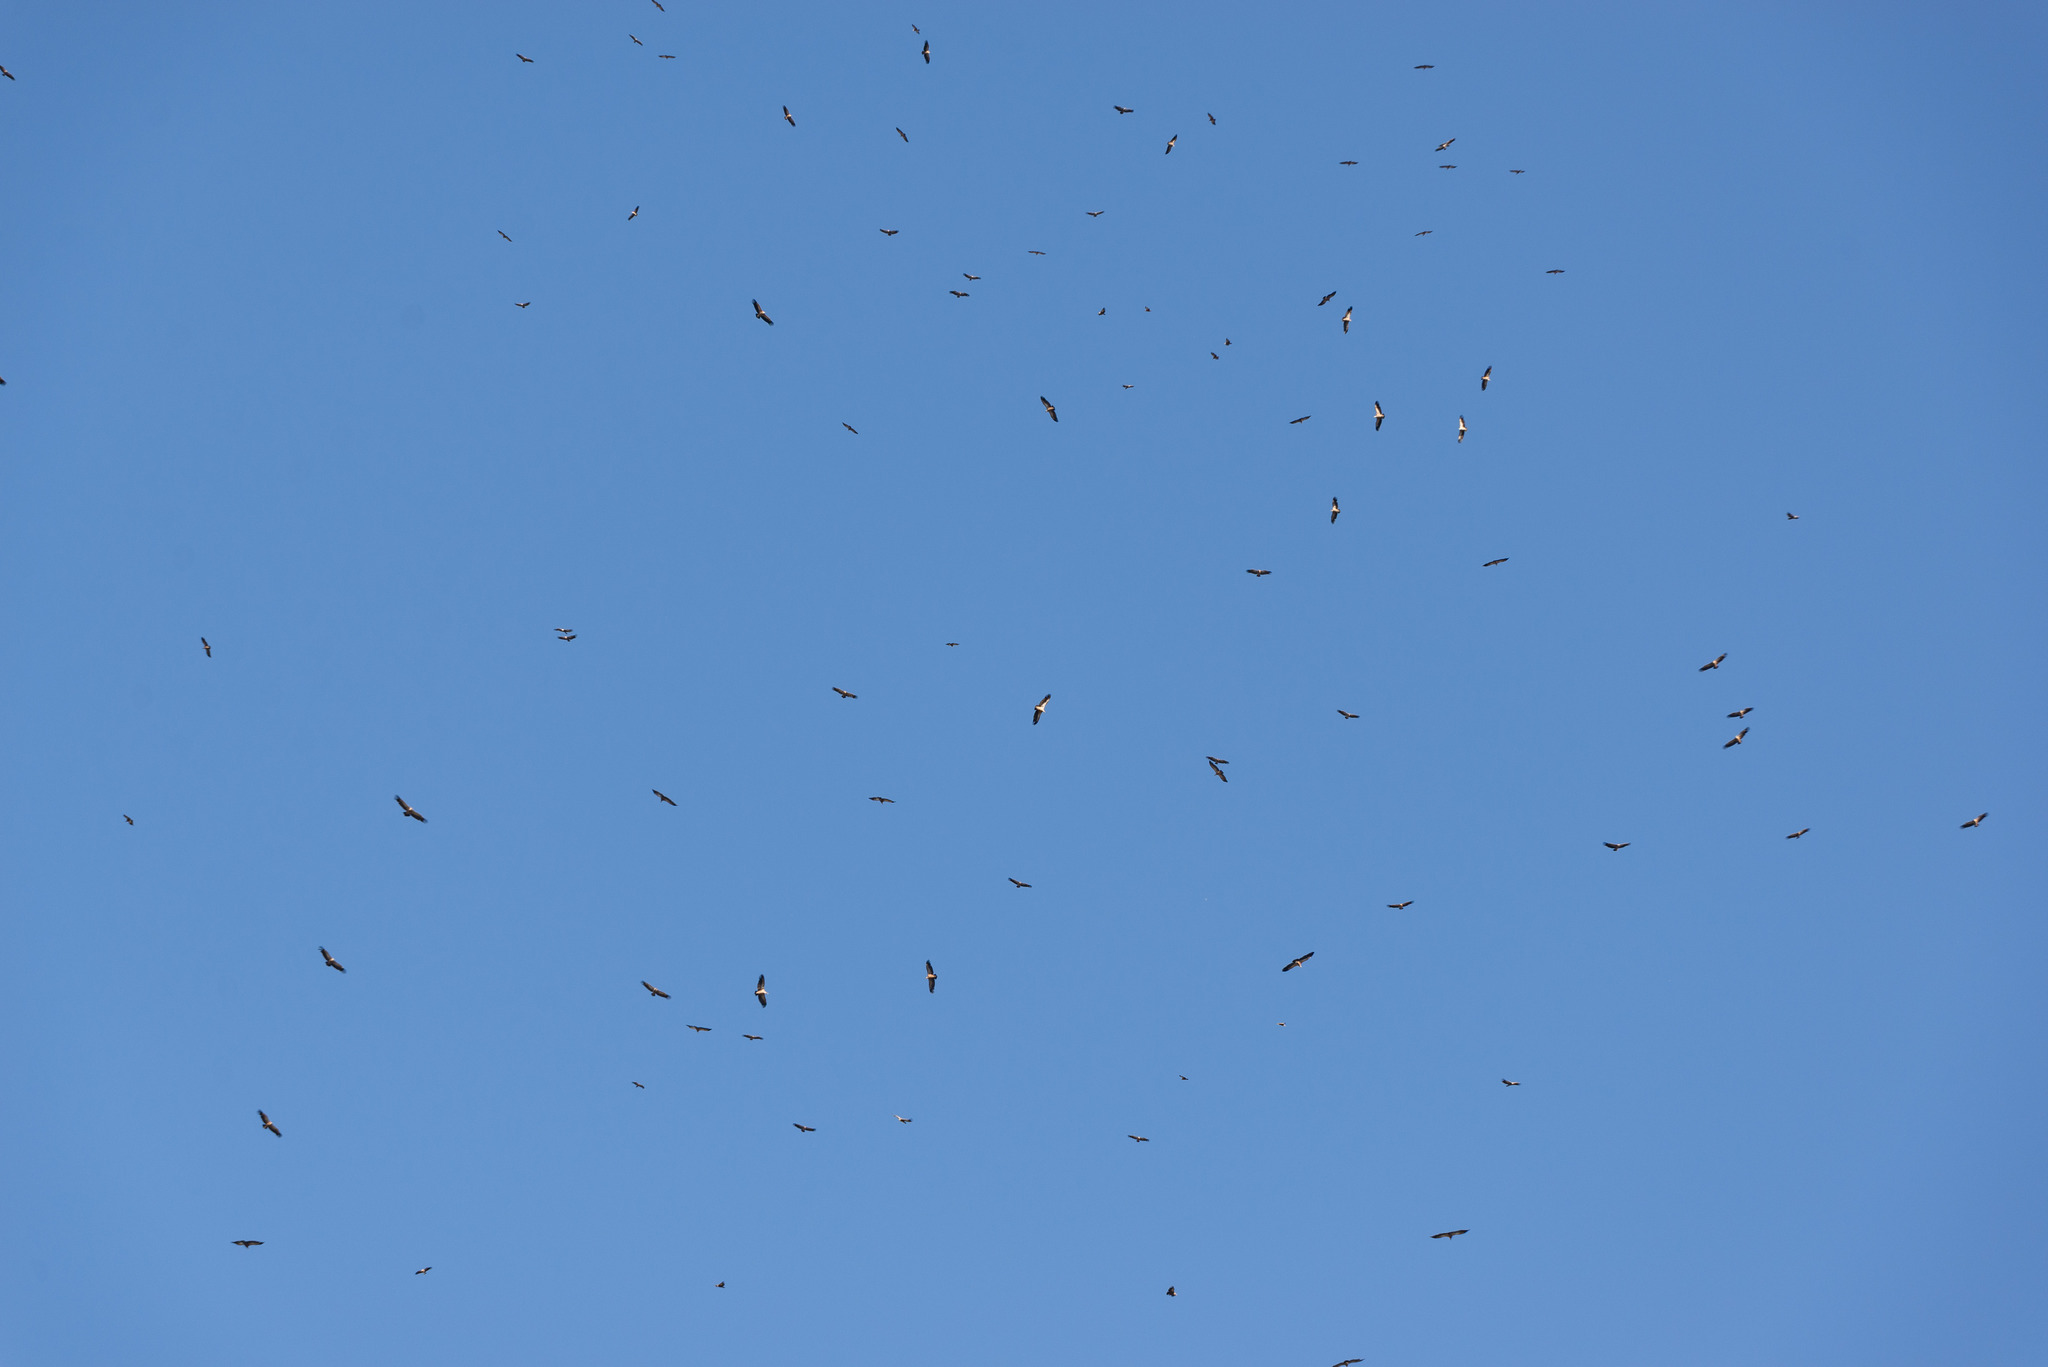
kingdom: Animalia
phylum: Chordata
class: Aves
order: Accipitriformes
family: Accipitridae
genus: Gyps
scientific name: Gyps fulvus
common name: Griffon vulture
